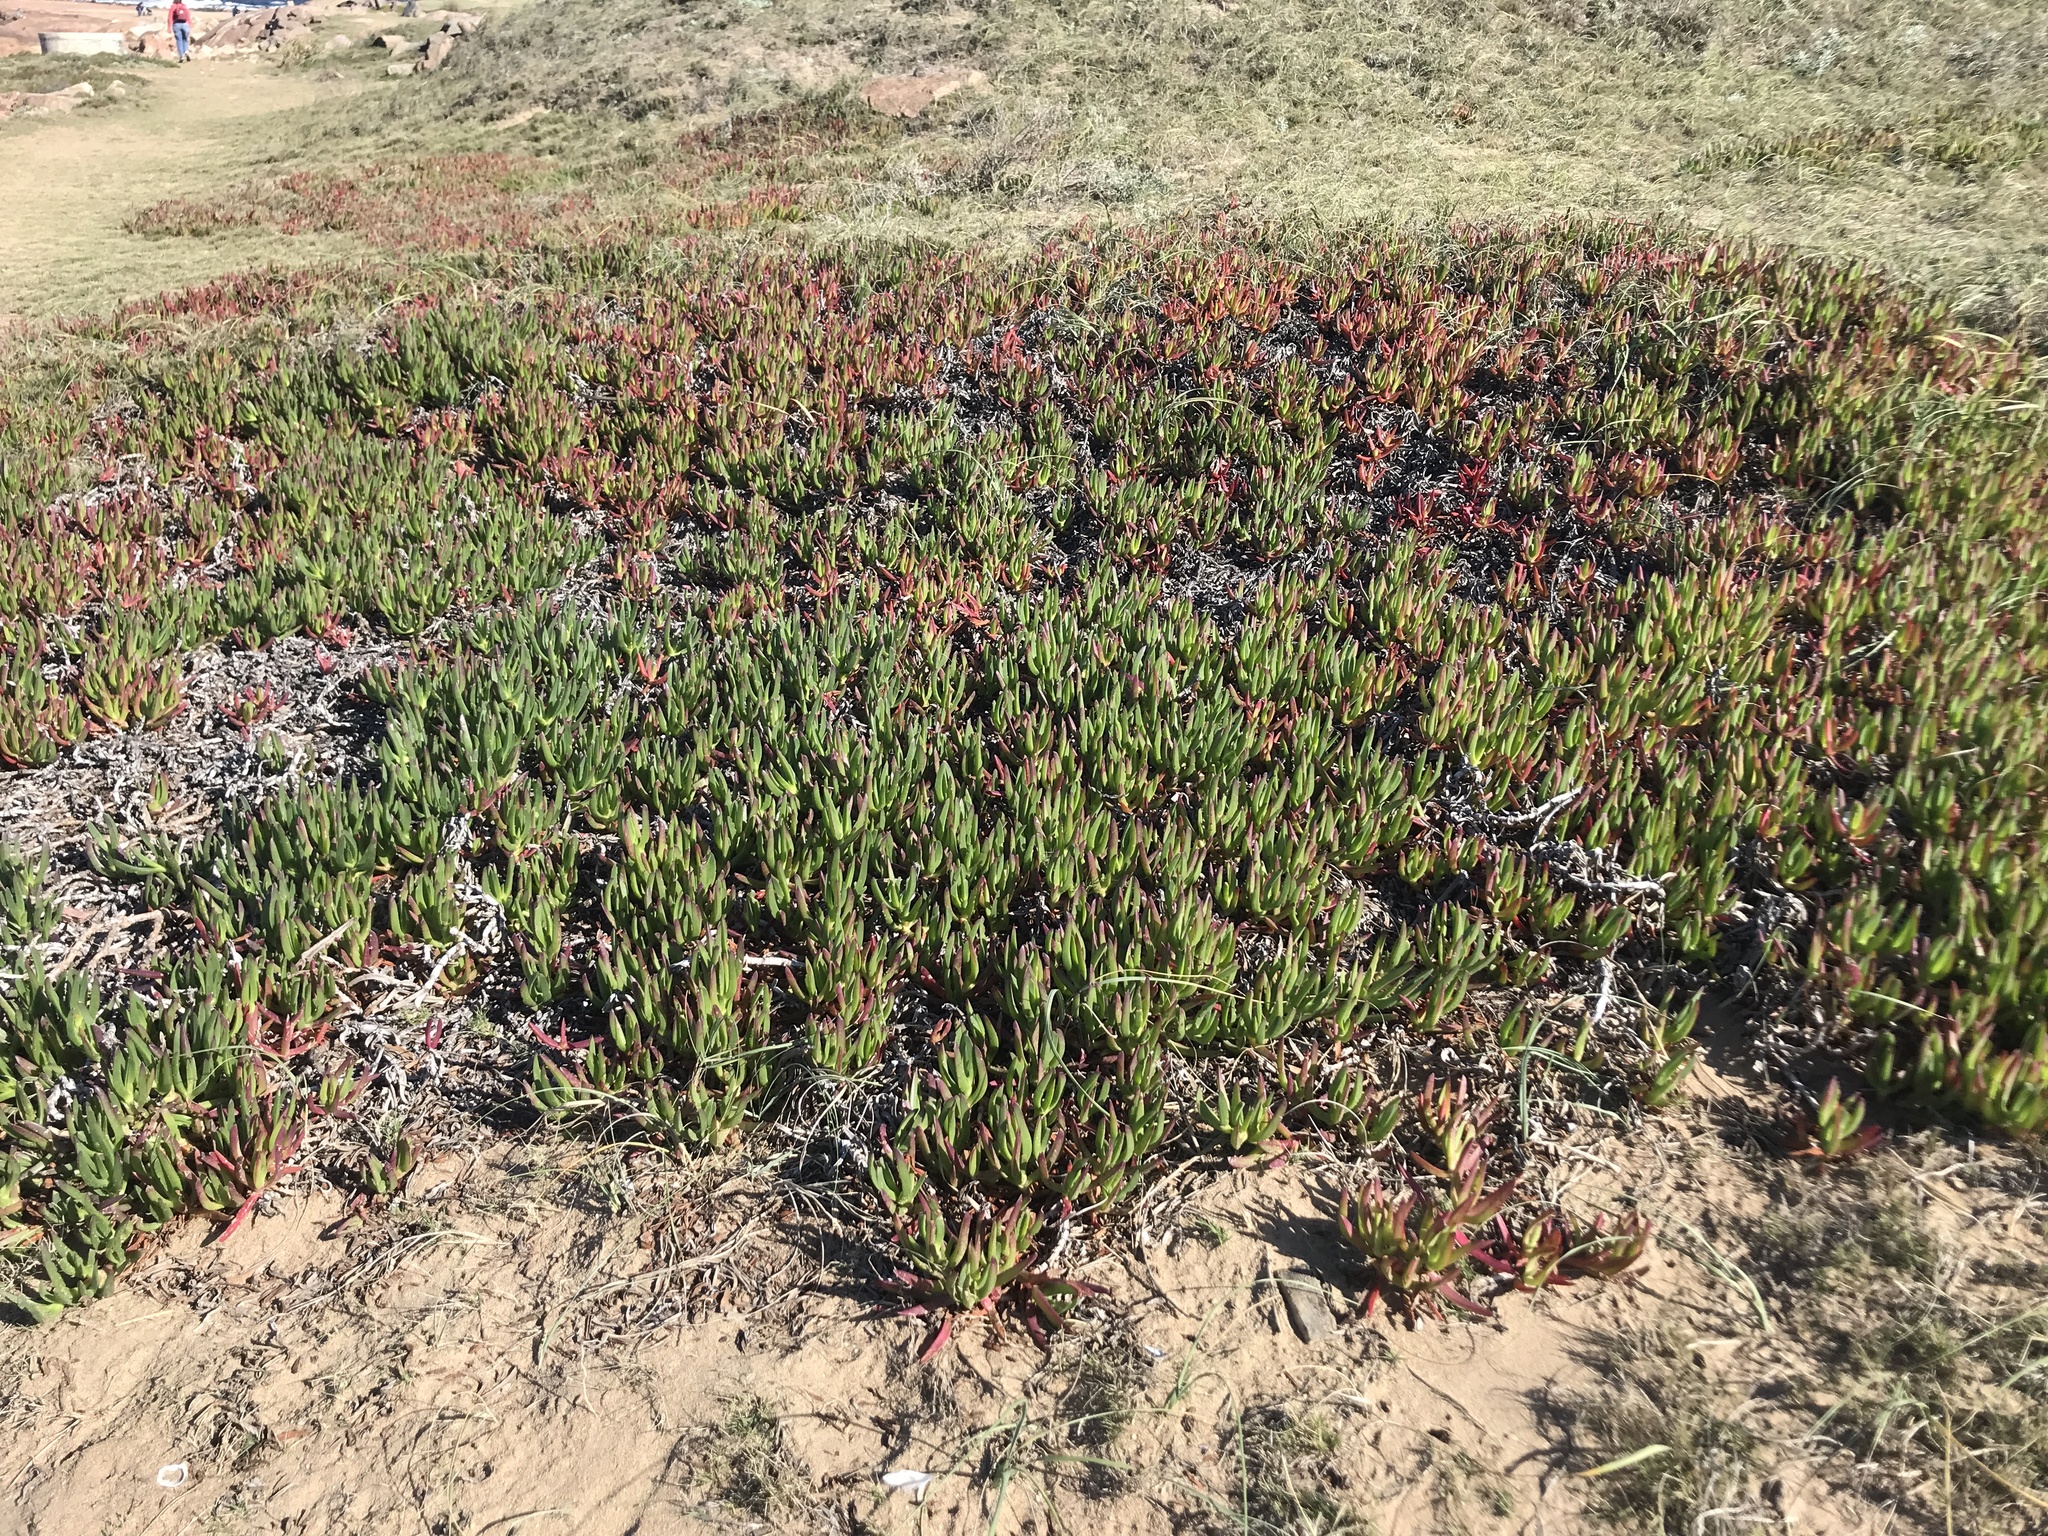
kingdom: Plantae
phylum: Tracheophyta
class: Magnoliopsida
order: Caryophyllales
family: Aizoaceae
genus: Carpobrotus
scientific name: Carpobrotus edulis
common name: Hottentot-fig
